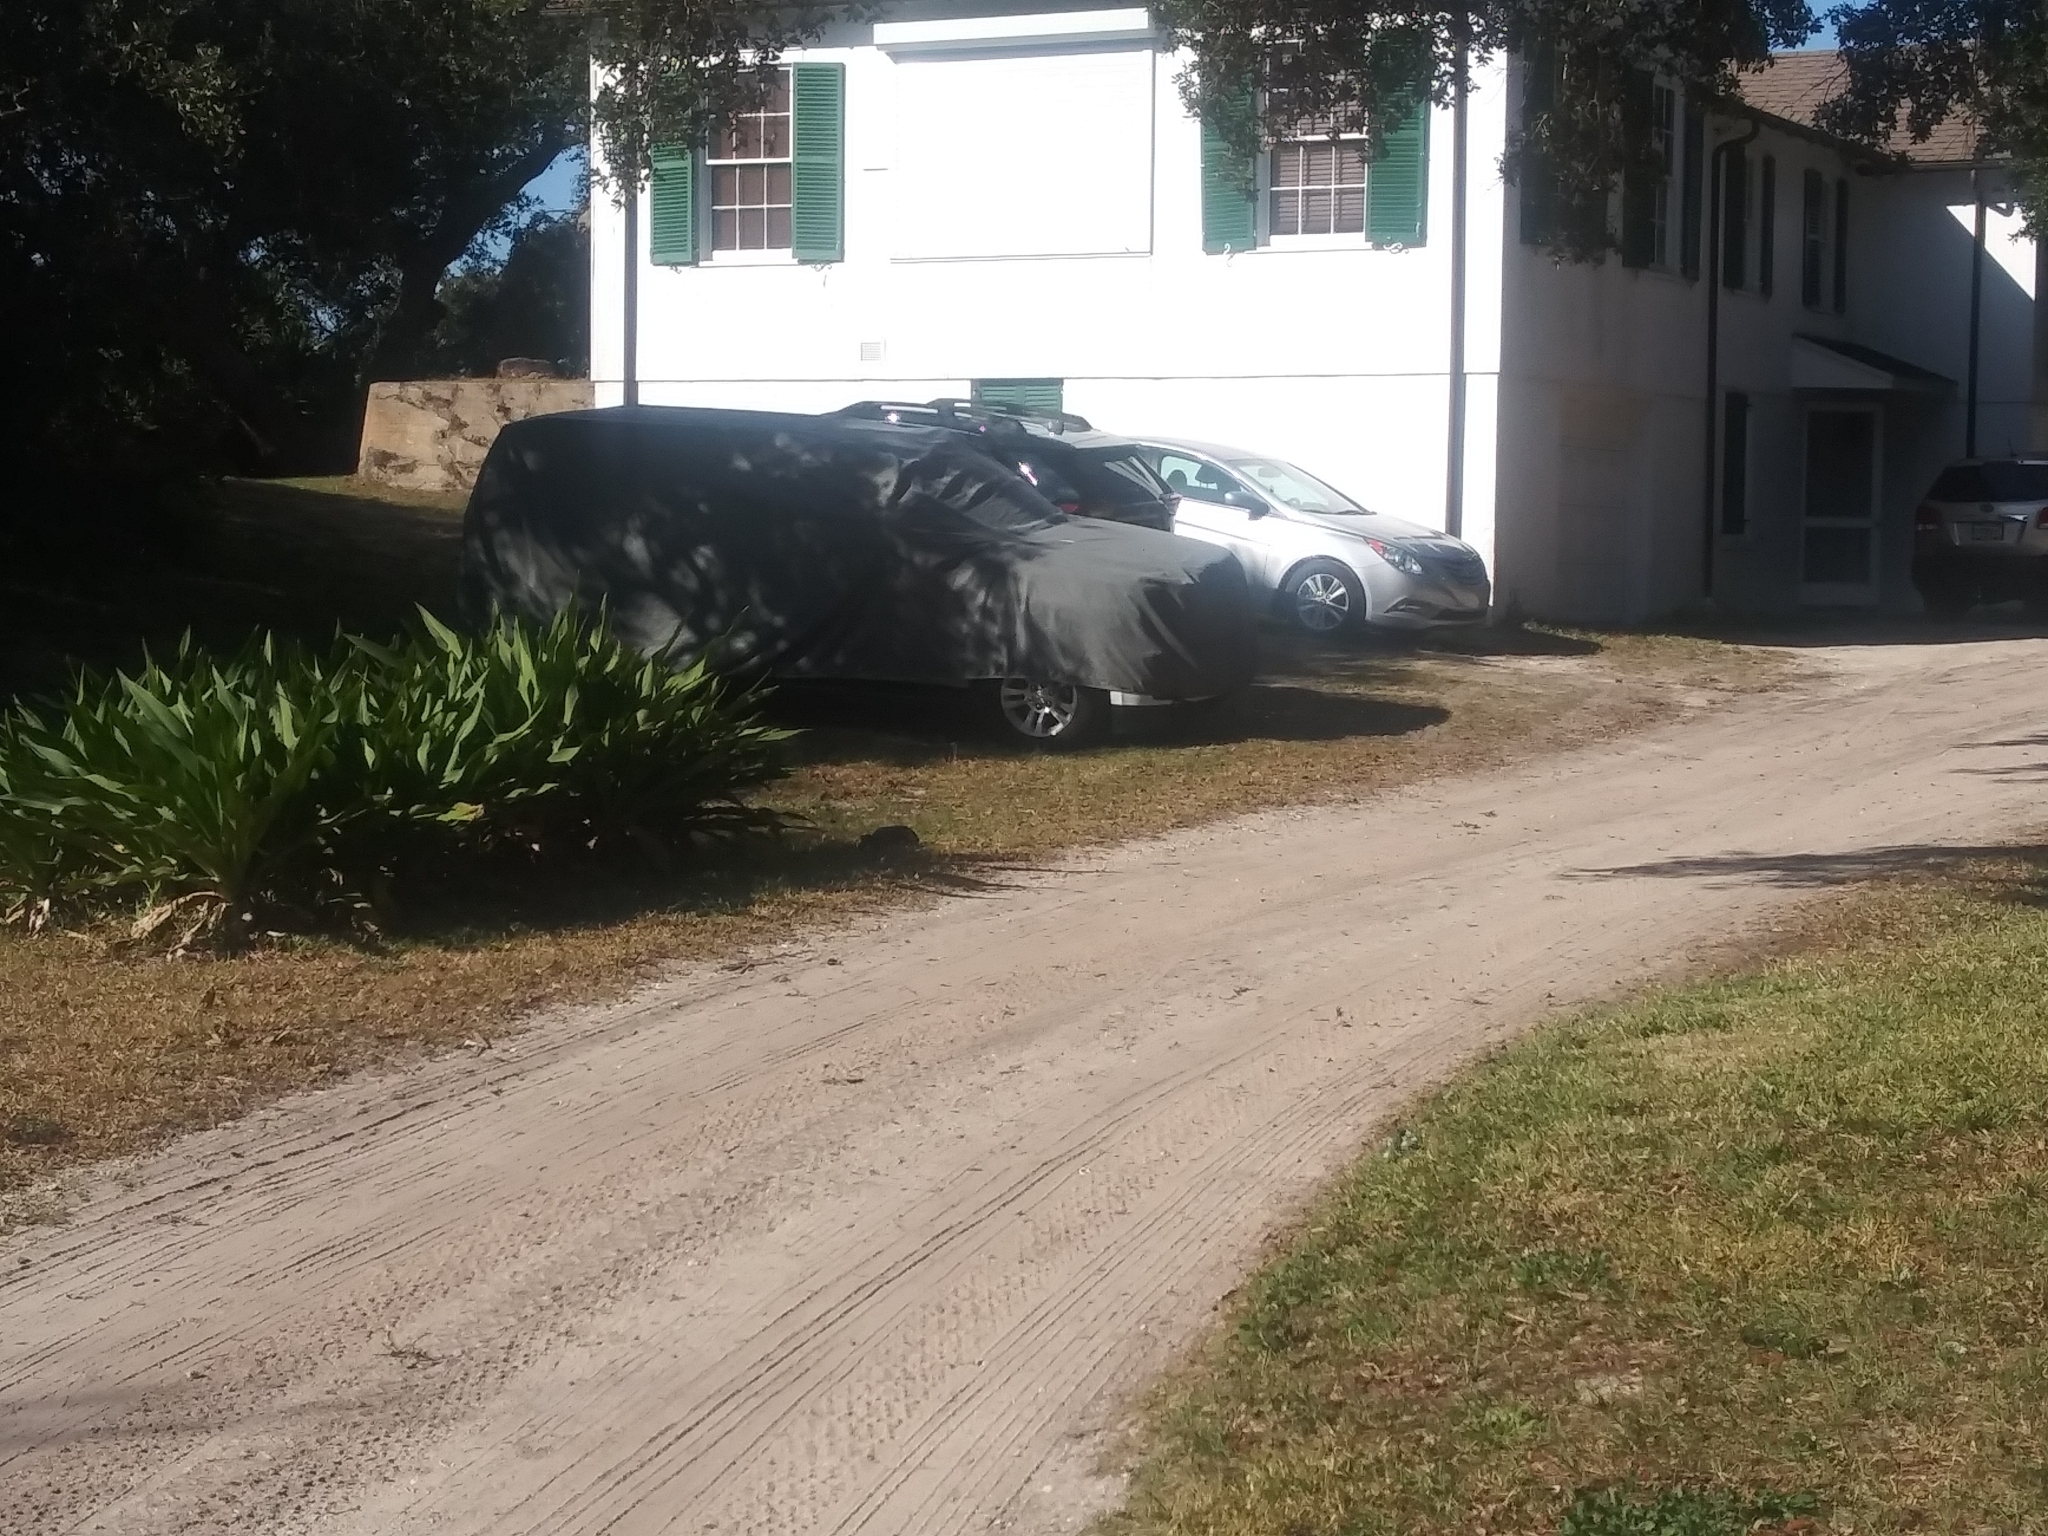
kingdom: Animalia
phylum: Chordata
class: Testudines
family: Testudinidae
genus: Gopherus
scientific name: Gopherus polyphemus
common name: Florida gopher tortoise
